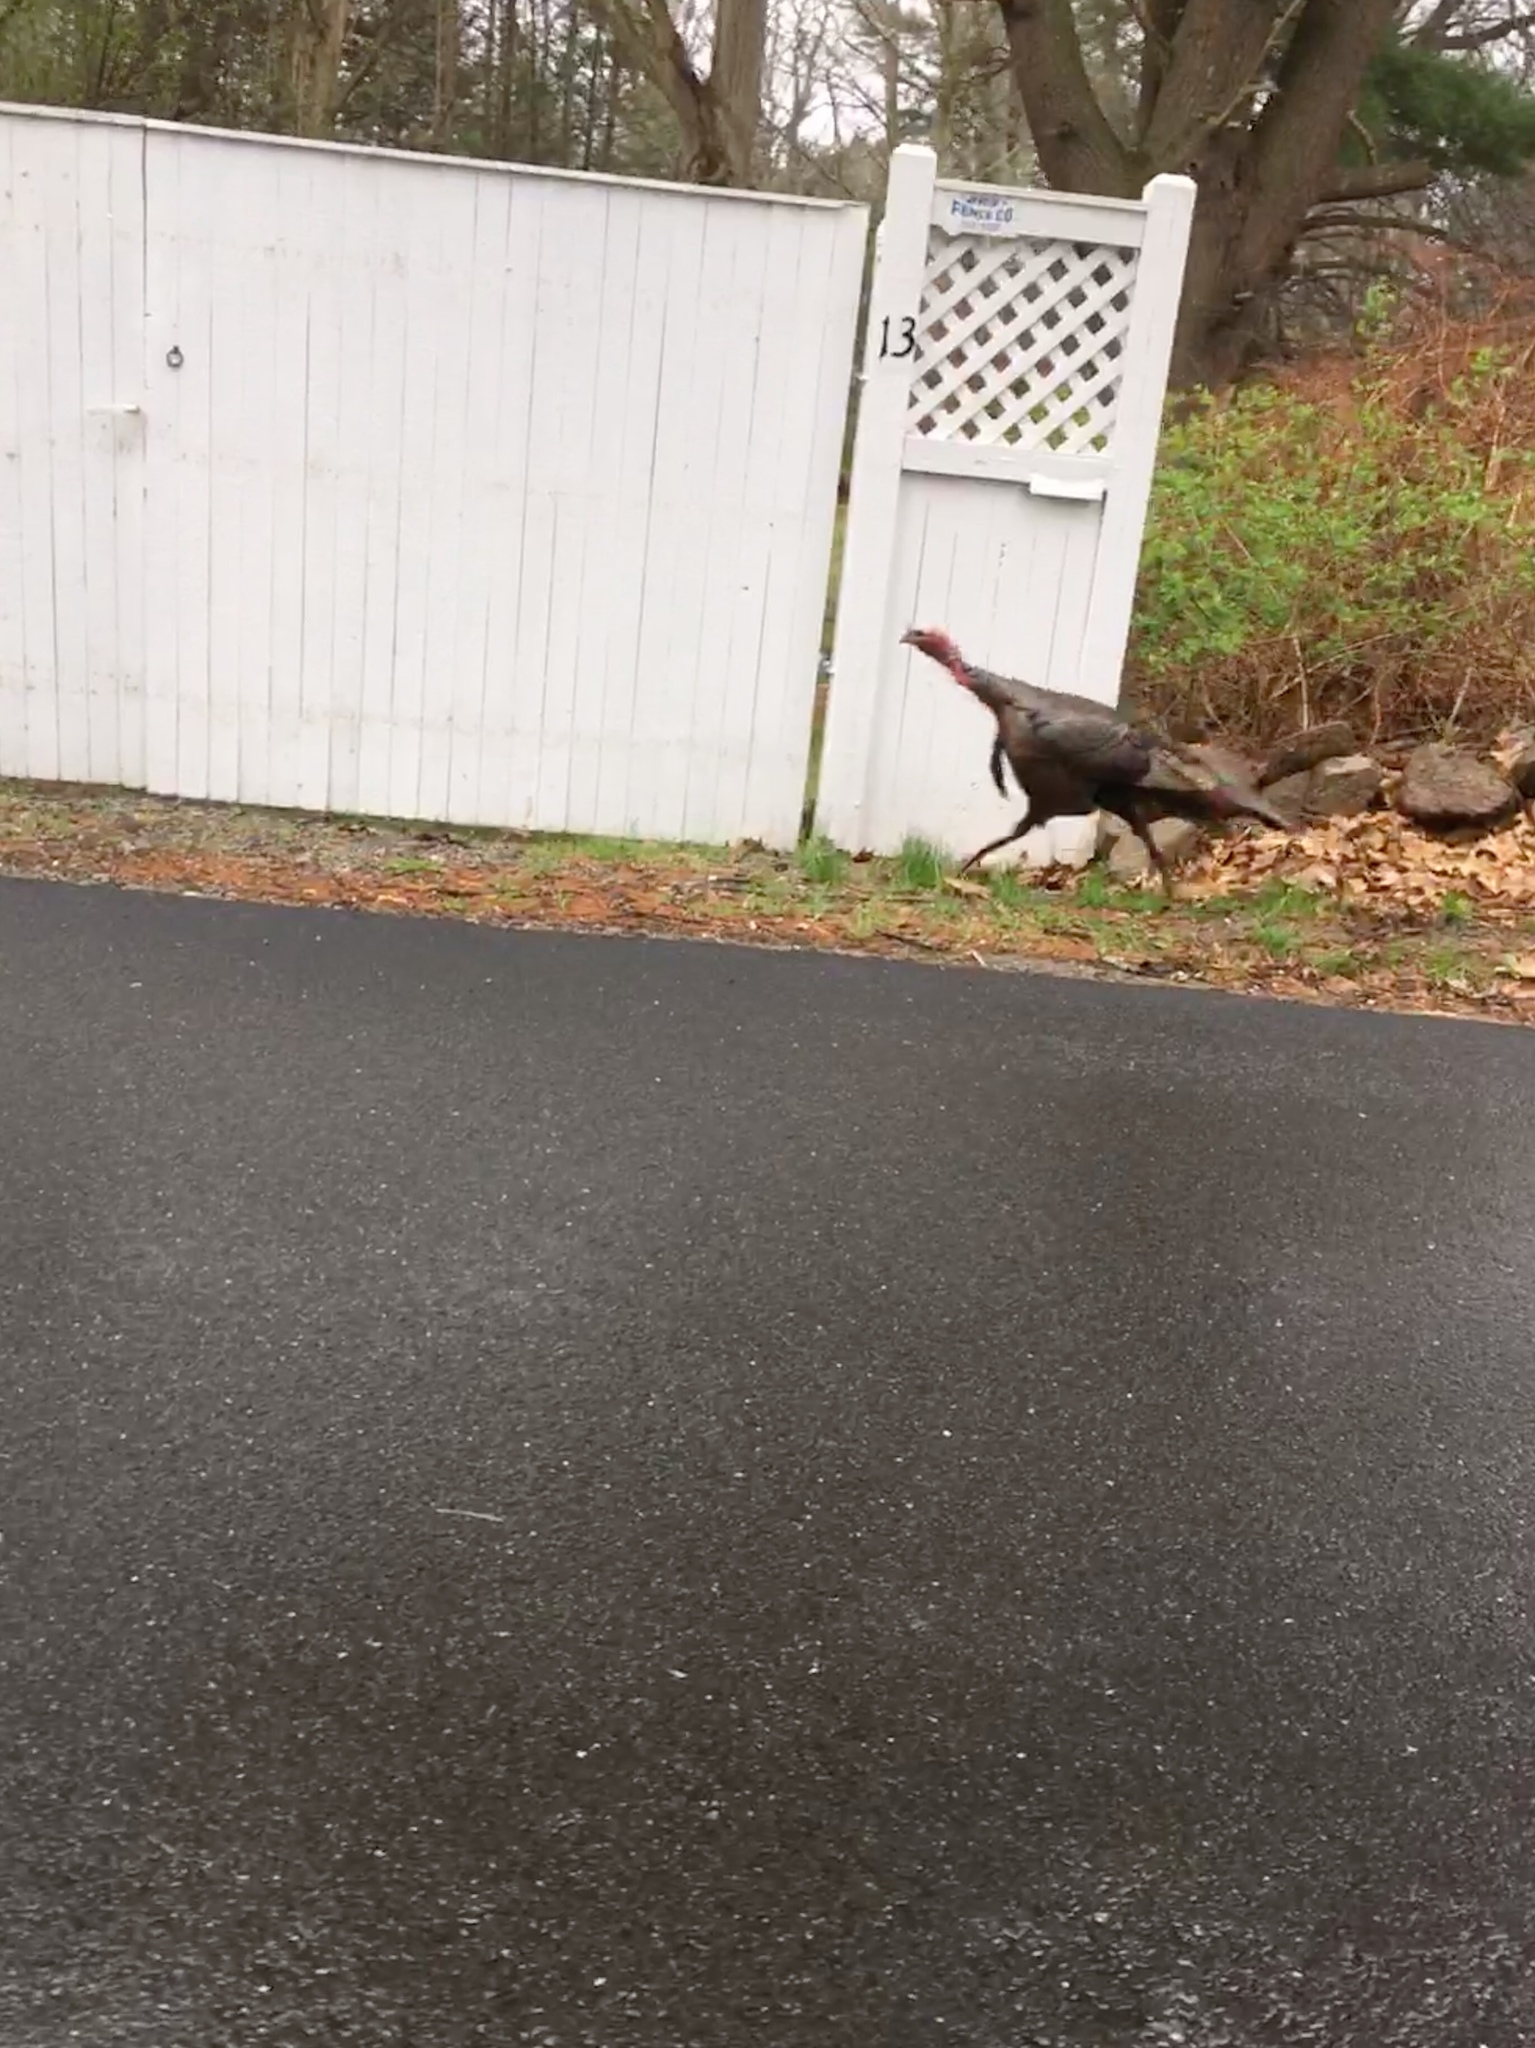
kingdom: Animalia
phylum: Chordata
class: Aves
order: Galliformes
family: Phasianidae
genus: Meleagris
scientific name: Meleagris gallopavo
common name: Wild turkey
